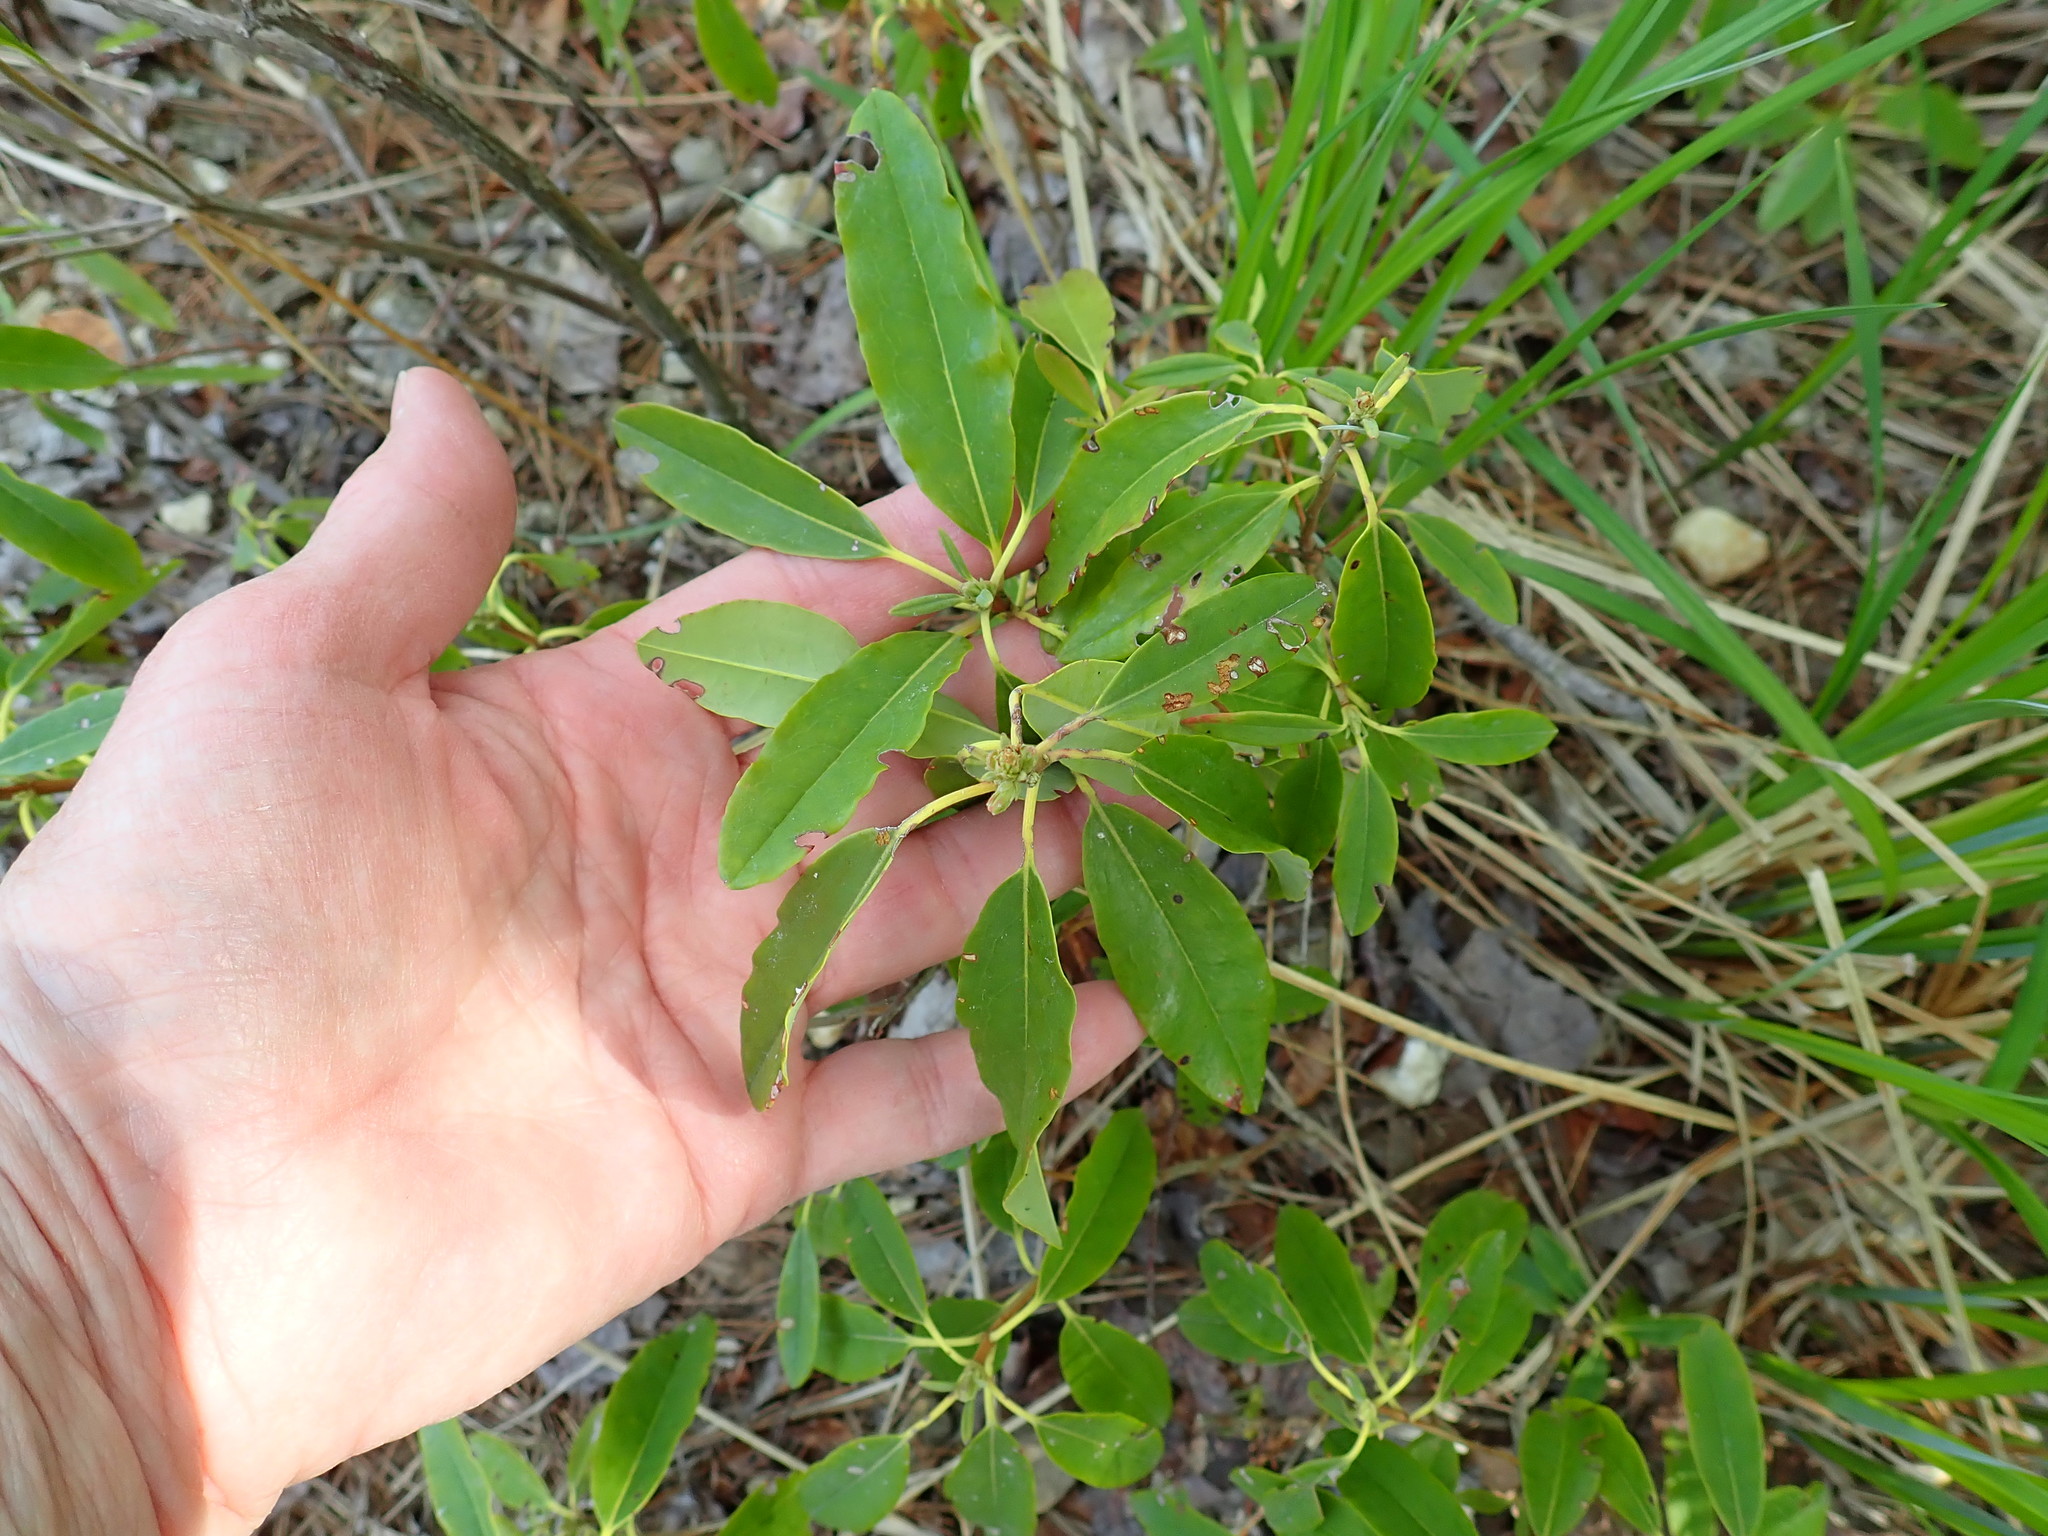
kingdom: Plantae
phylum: Tracheophyta
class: Magnoliopsida
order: Ericales
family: Ericaceae
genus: Kalmia
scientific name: Kalmia angustifolia
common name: Sheep-laurel
